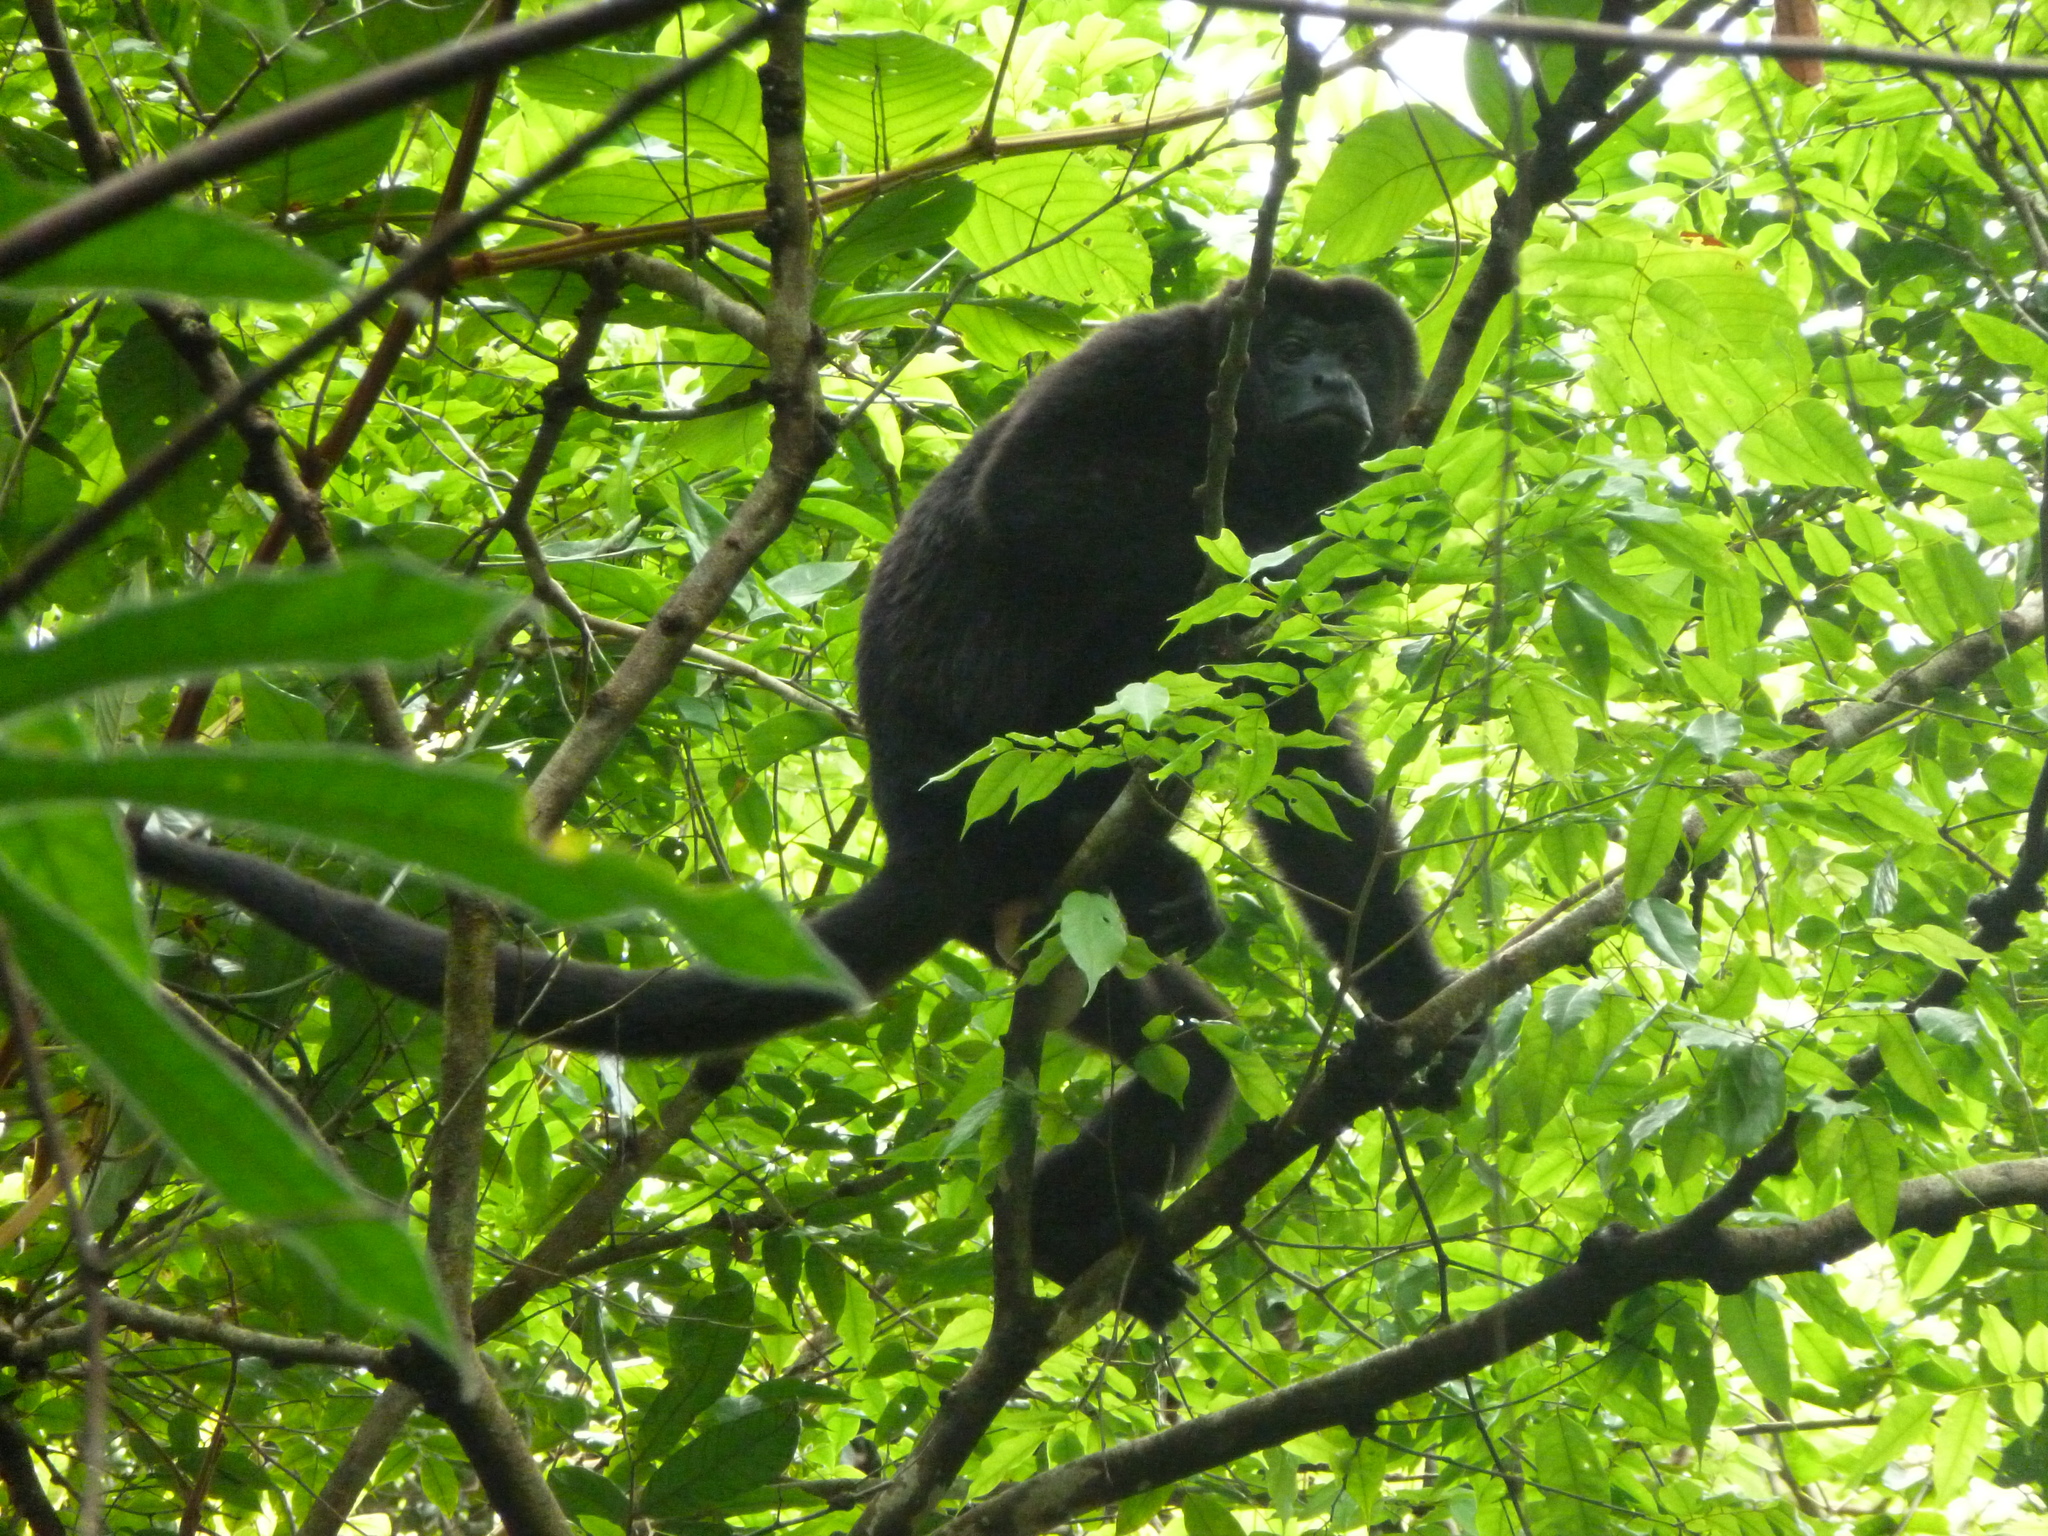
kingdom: Animalia
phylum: Chordata
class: Mammalia
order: Primates
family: Atelidae
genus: Alouatta
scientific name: Alouatta palliata
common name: Mantled howler
